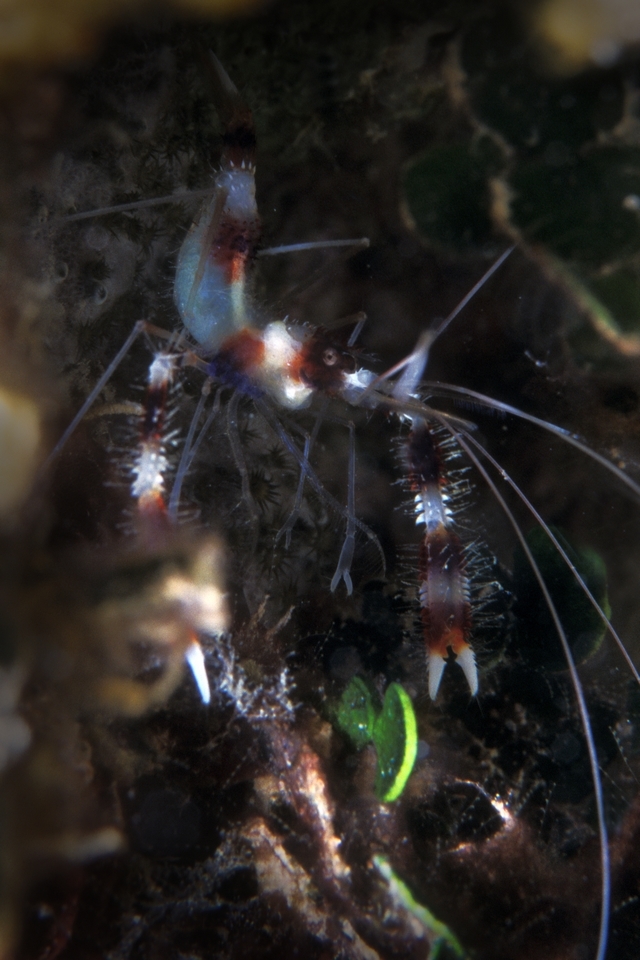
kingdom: Animalia
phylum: Arthropoda
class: Malacostraca
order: Decapoda
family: Stenopodidae
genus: Stenopus
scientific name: Stenopus hispidus
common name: Banded coral shrimp
